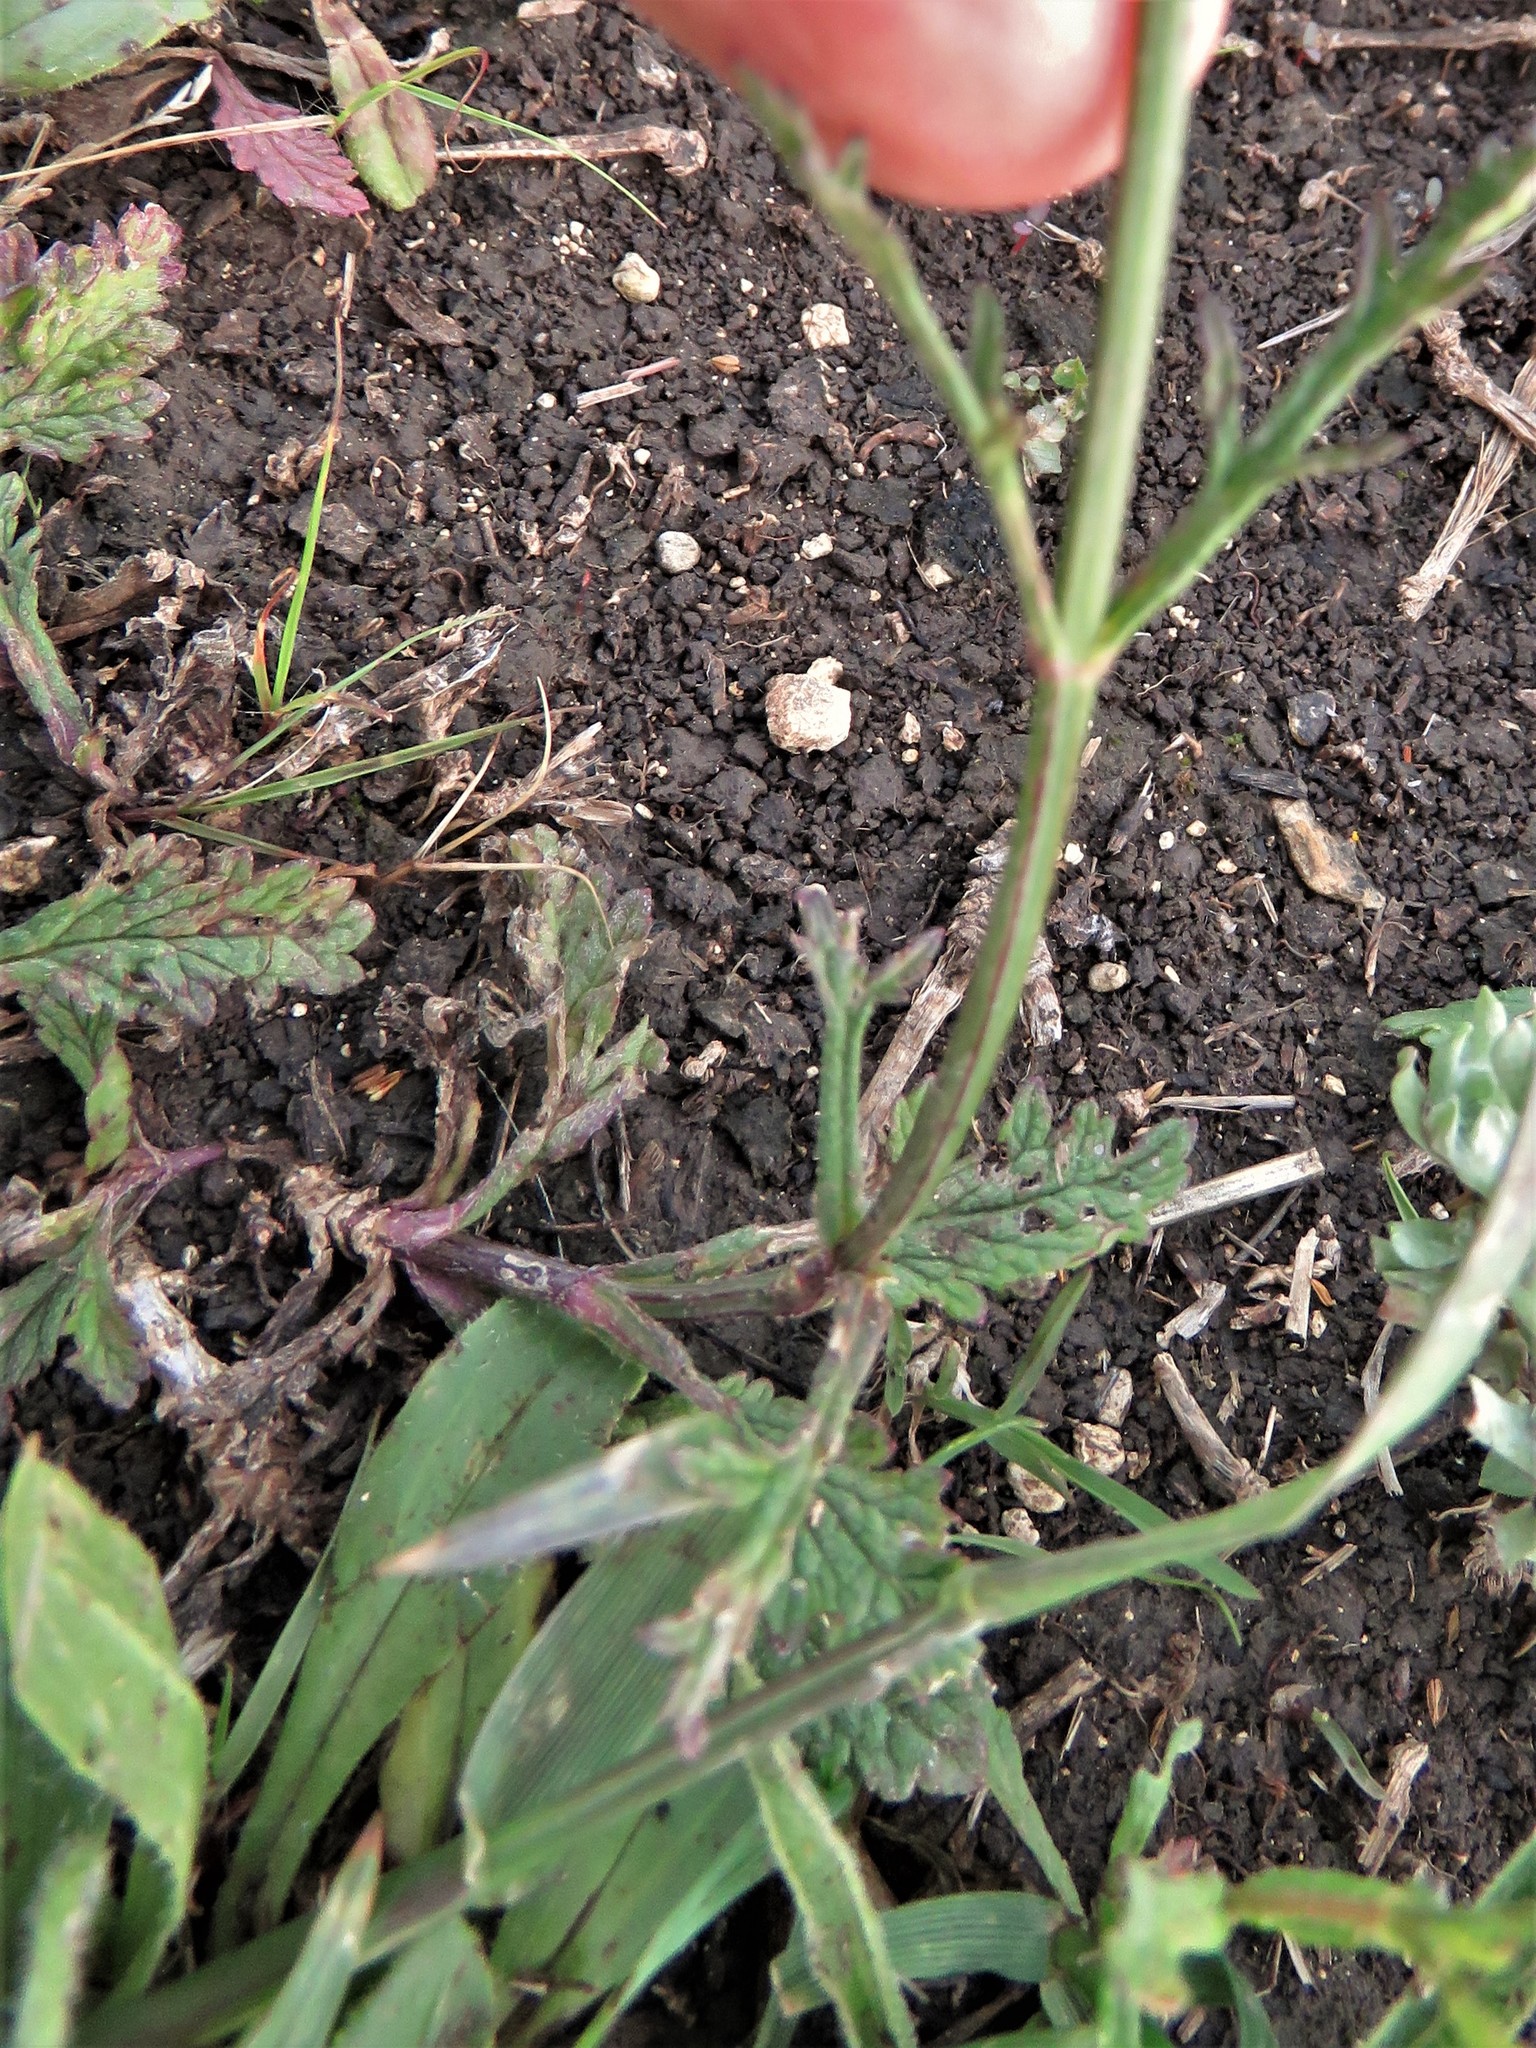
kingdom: Plantae
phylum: Tracheophyta
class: Magnoliopsida
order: Lamiales
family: Verbenaceae
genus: Verbena
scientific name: Verbena halei
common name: Texas vervain
